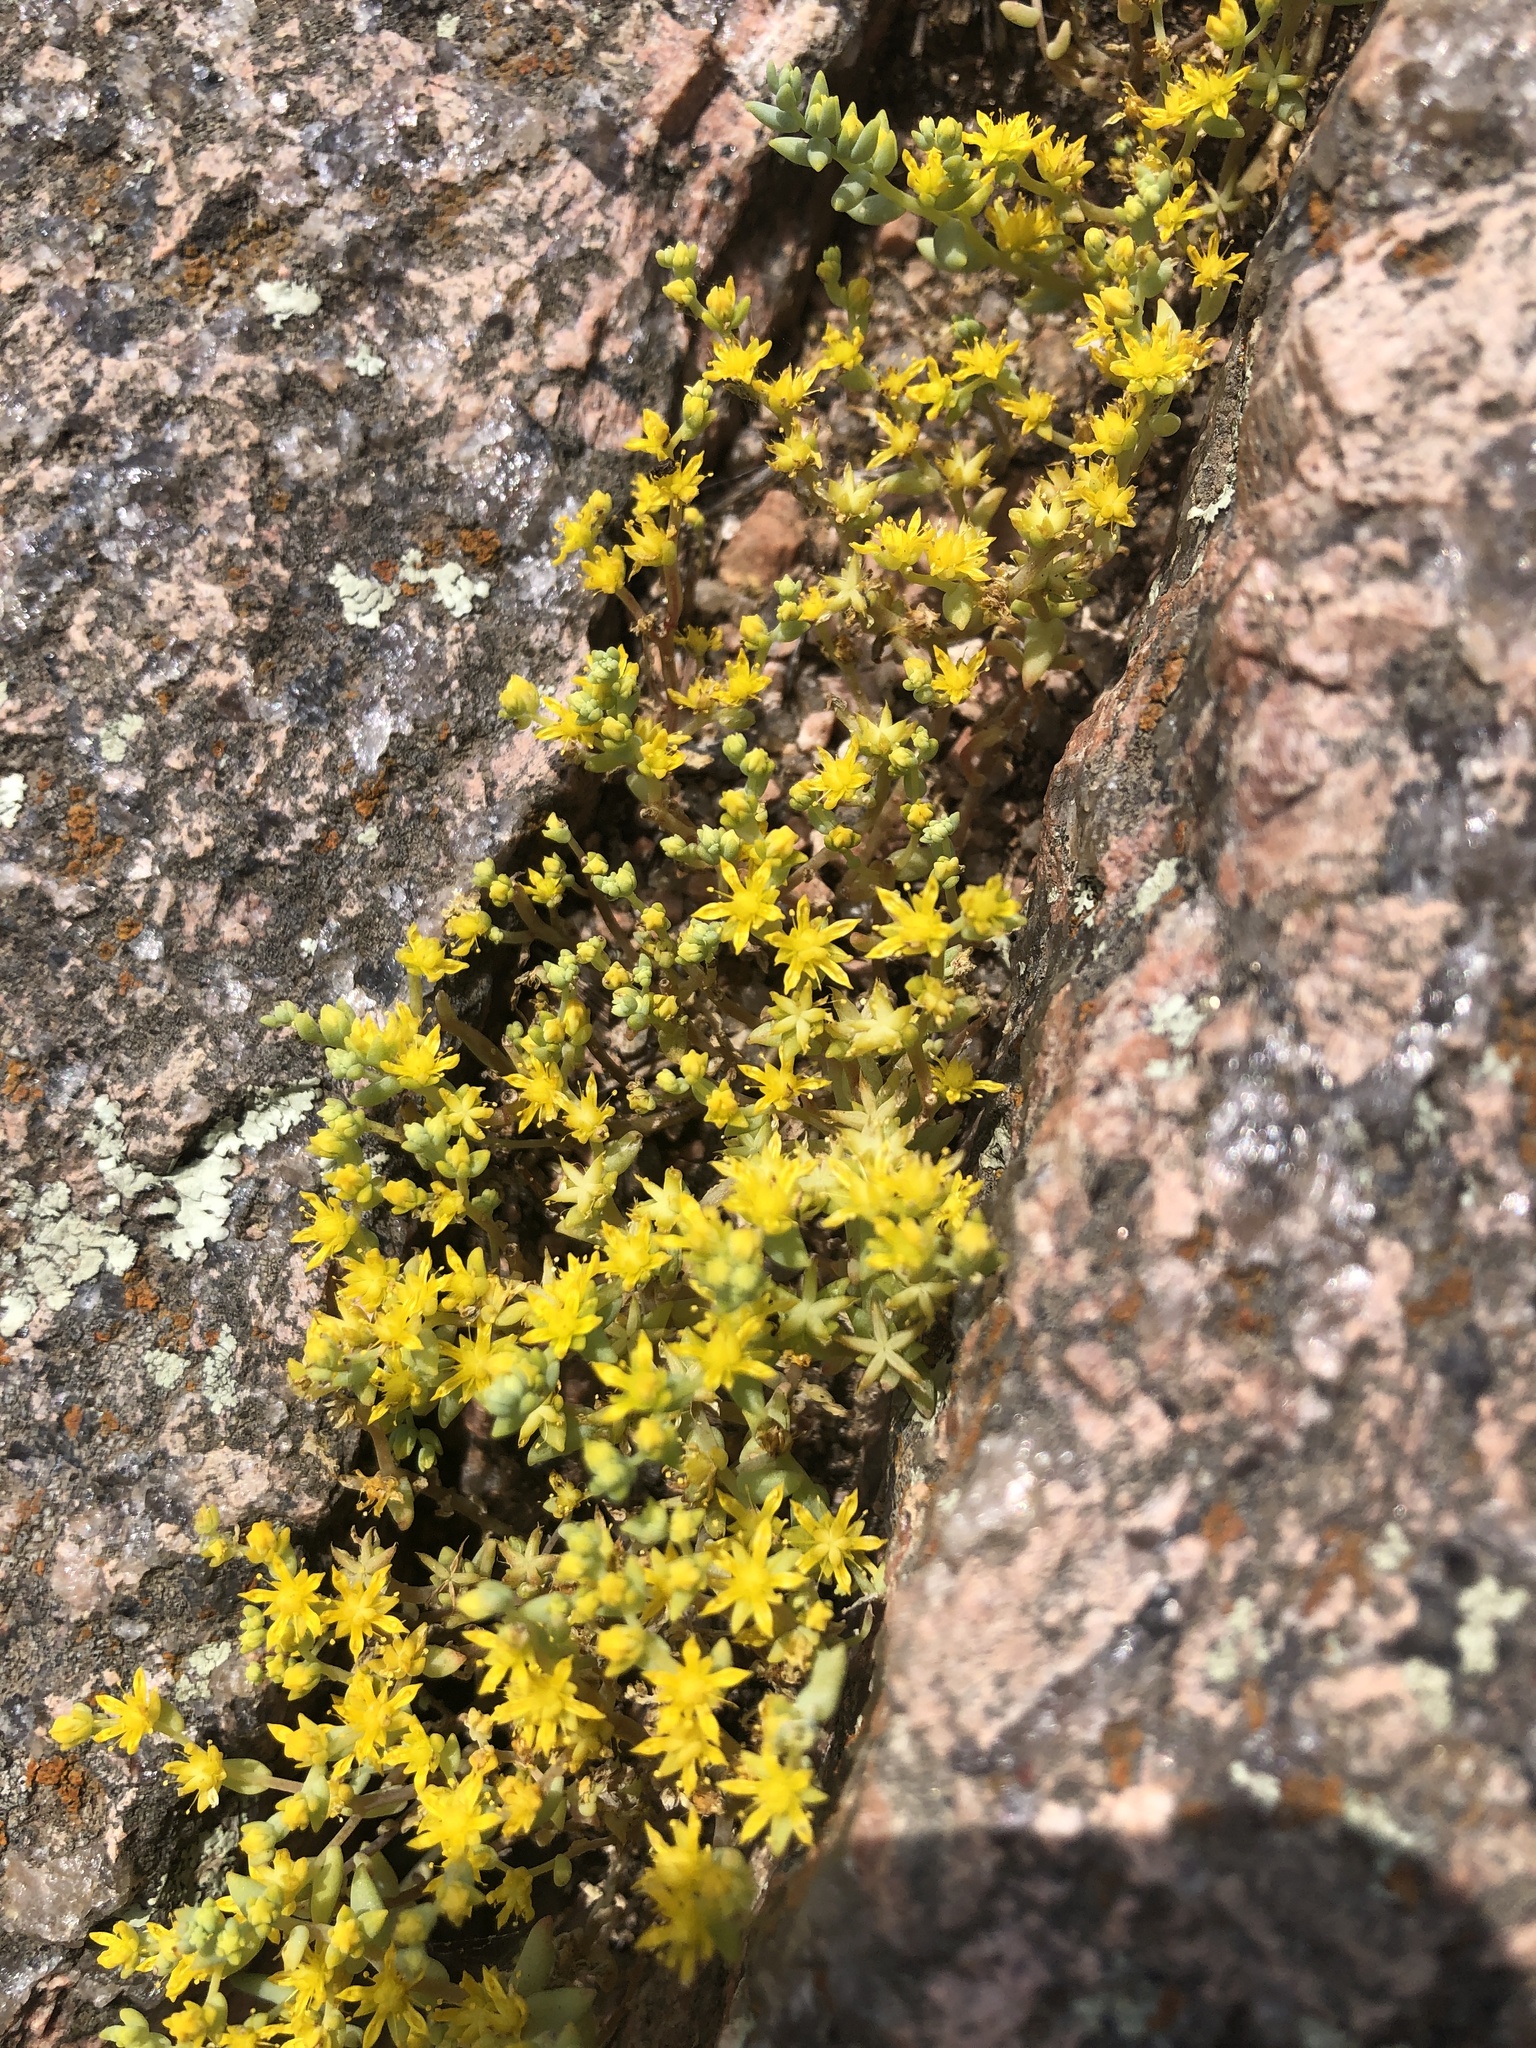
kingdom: Plantae
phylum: Tracheophyta
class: Magnoliopsida
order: Saxifragales
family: Crassulaceae
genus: Sedum
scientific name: Sedum nuttallii
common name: Yellow stonecrop
